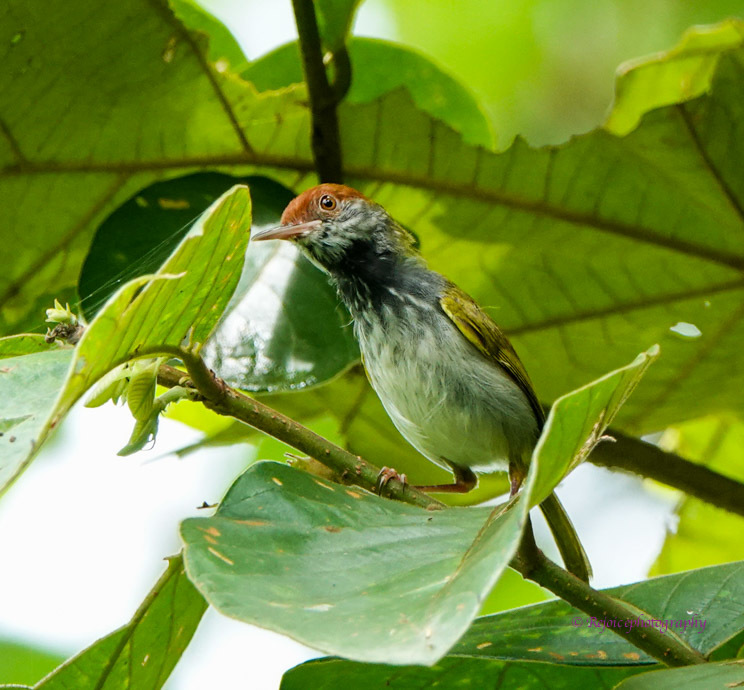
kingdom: Animalia
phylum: Chordata
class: Aves
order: Passeriformes
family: Cisticolidae
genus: Orthotomus
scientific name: Orthotomus atrogularis
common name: Dark-necked tailorbird
